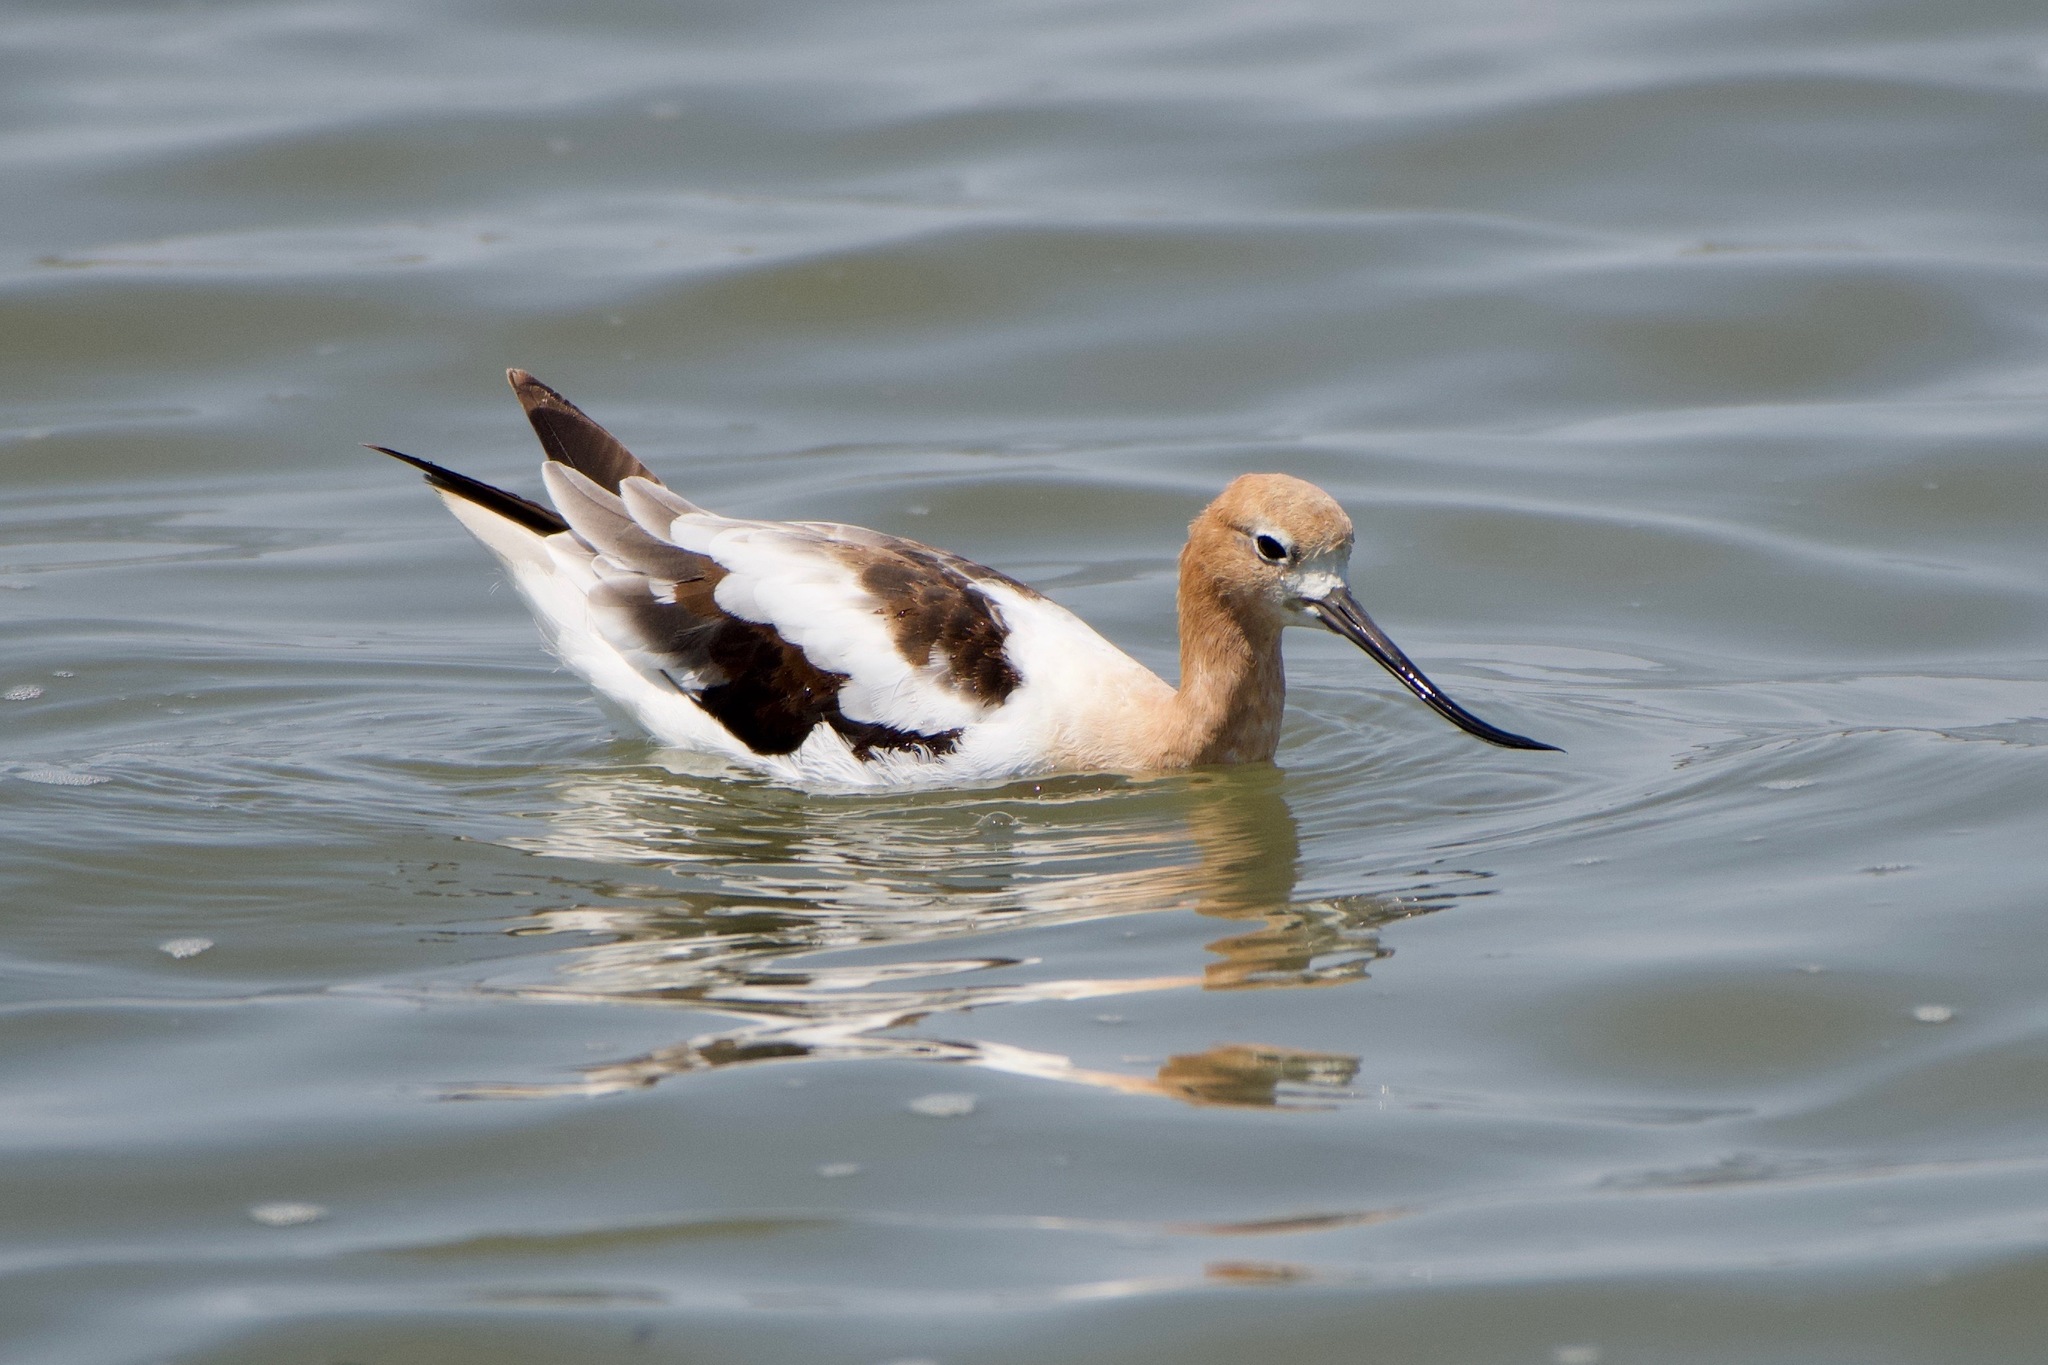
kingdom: Animalia
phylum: Chordata
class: Aves
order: Charadriiformes
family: Recurvirostridae
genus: Recurvirostra
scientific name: Recurvirostra americana
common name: American avocet
